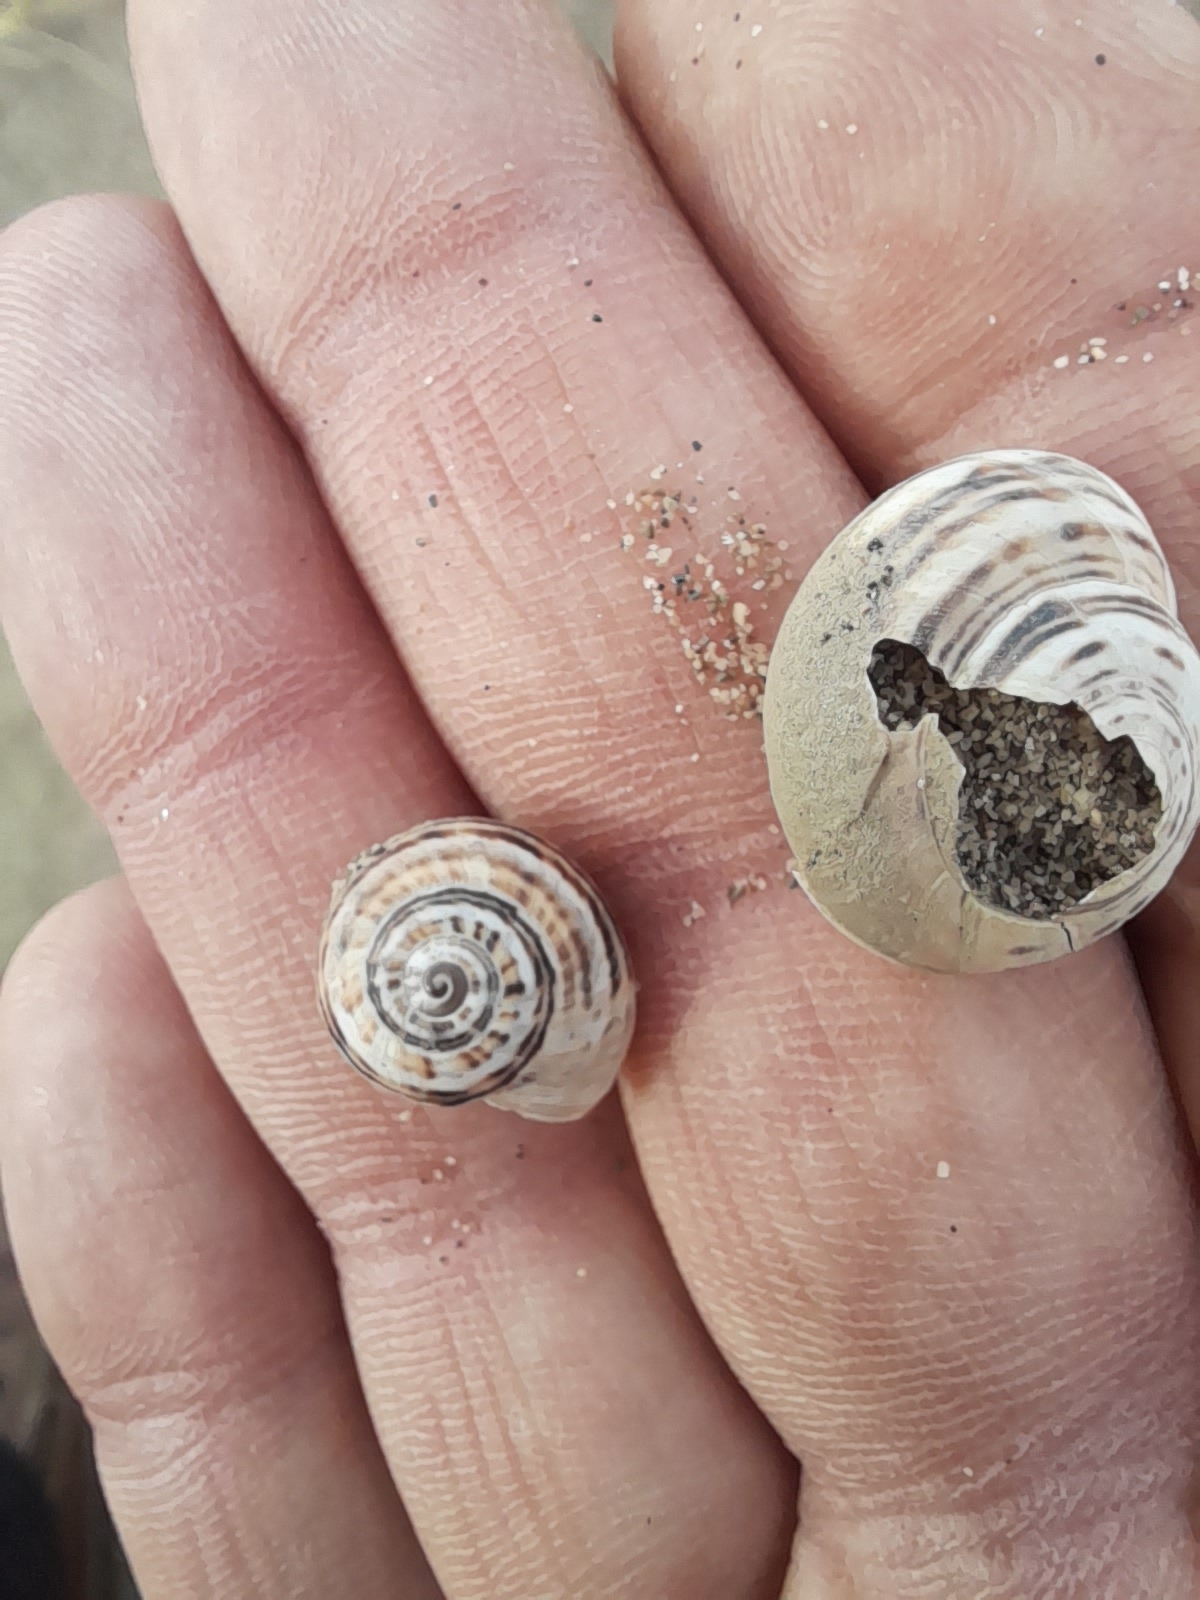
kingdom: Animalia
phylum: Mollusca
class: Gastropoda
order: Stylommatophora
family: Helicidae
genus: Theba
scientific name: Theba pisana
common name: White snail
